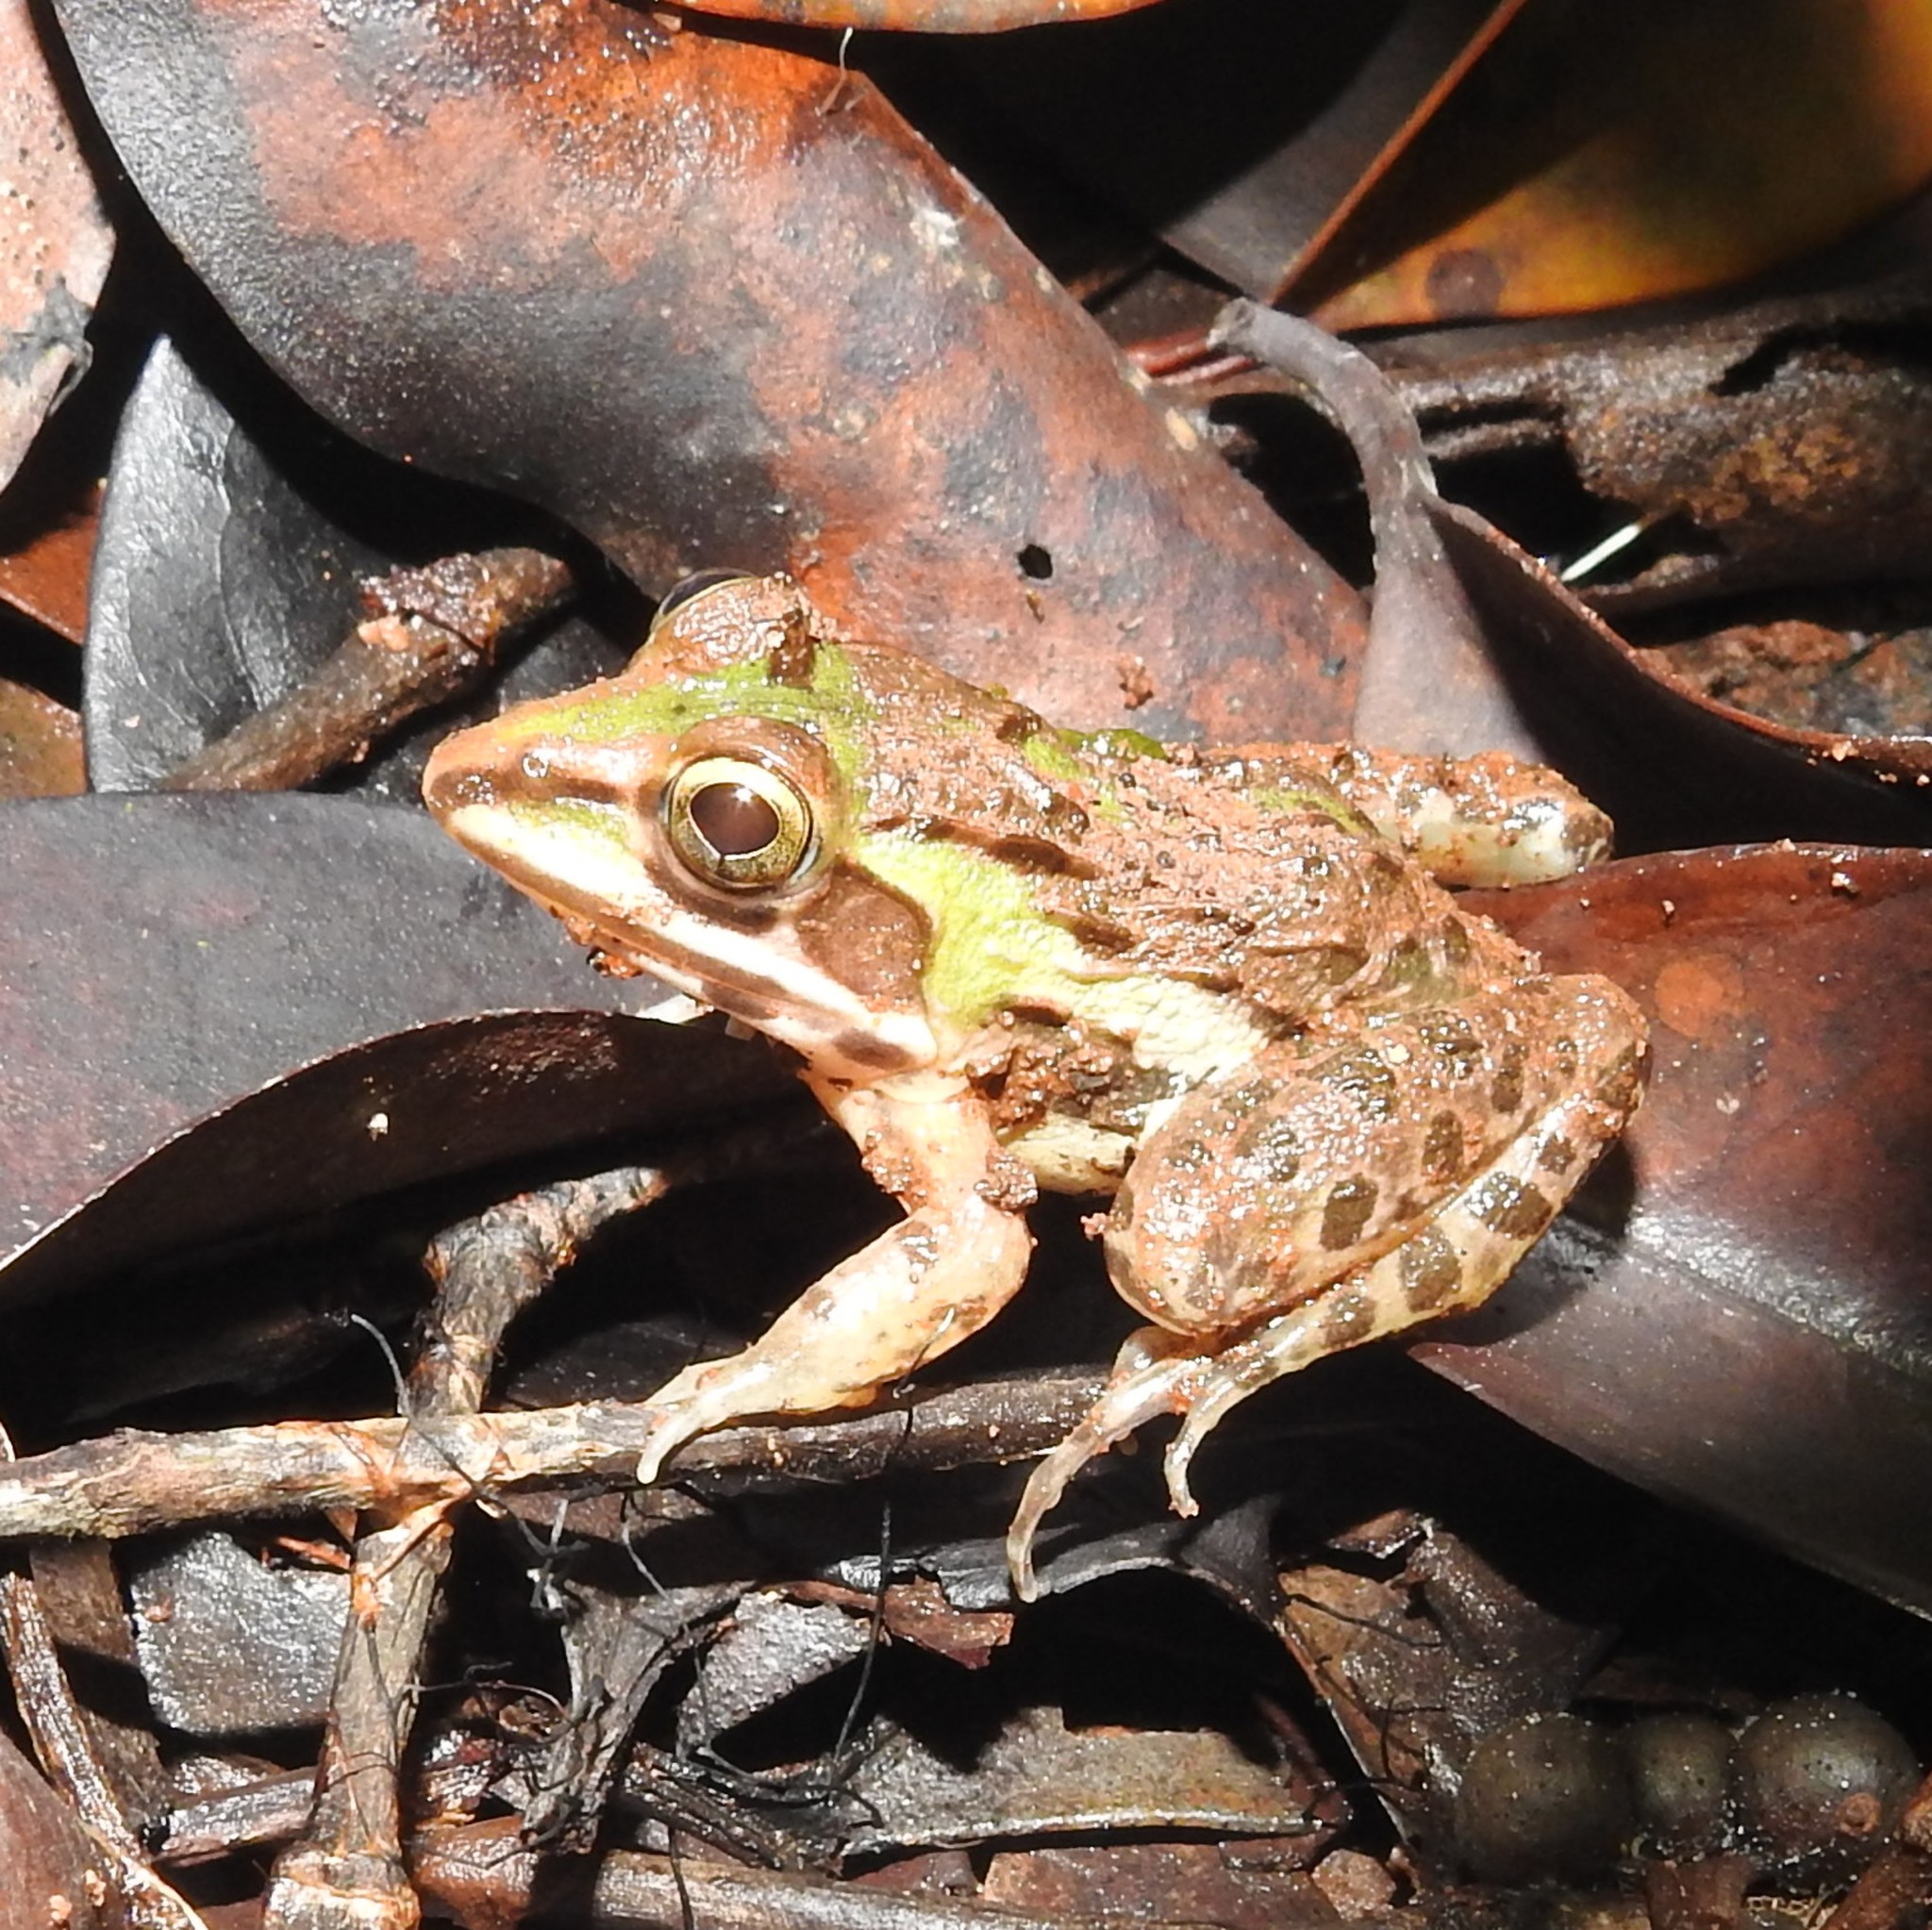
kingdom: Animalia
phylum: Chordata
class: Amphibia
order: Anura
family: Dicroglossidae
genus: Hoplobatrachus
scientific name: Hoplobatrachus tigerinus
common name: Indian bullfrog
